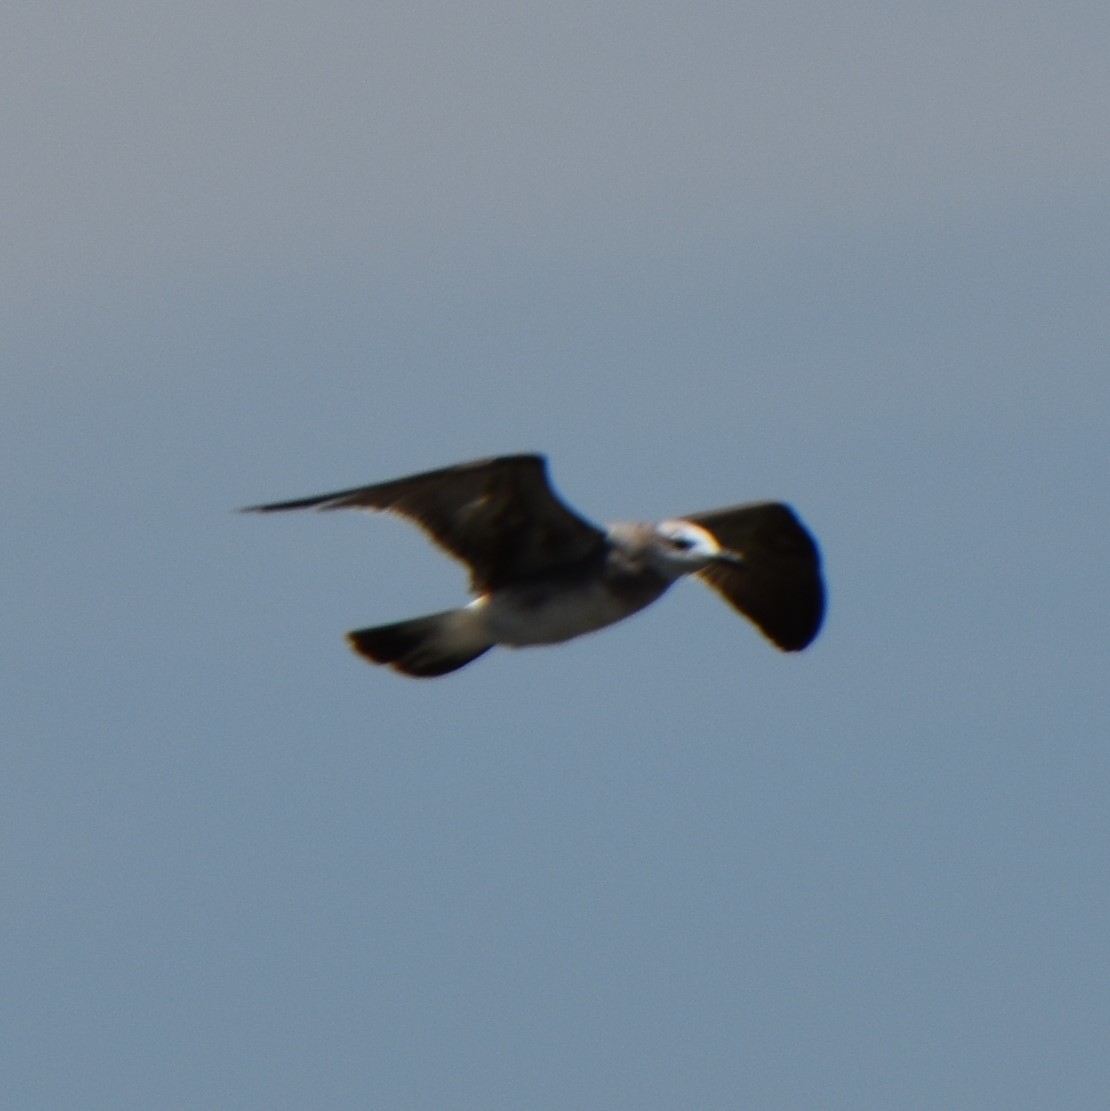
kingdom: Animalia
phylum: Chordata
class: Aves
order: Charadriiformes
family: Laridae
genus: Leucophaeus
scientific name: Leucophaeus atricilla
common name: Laughing gull
